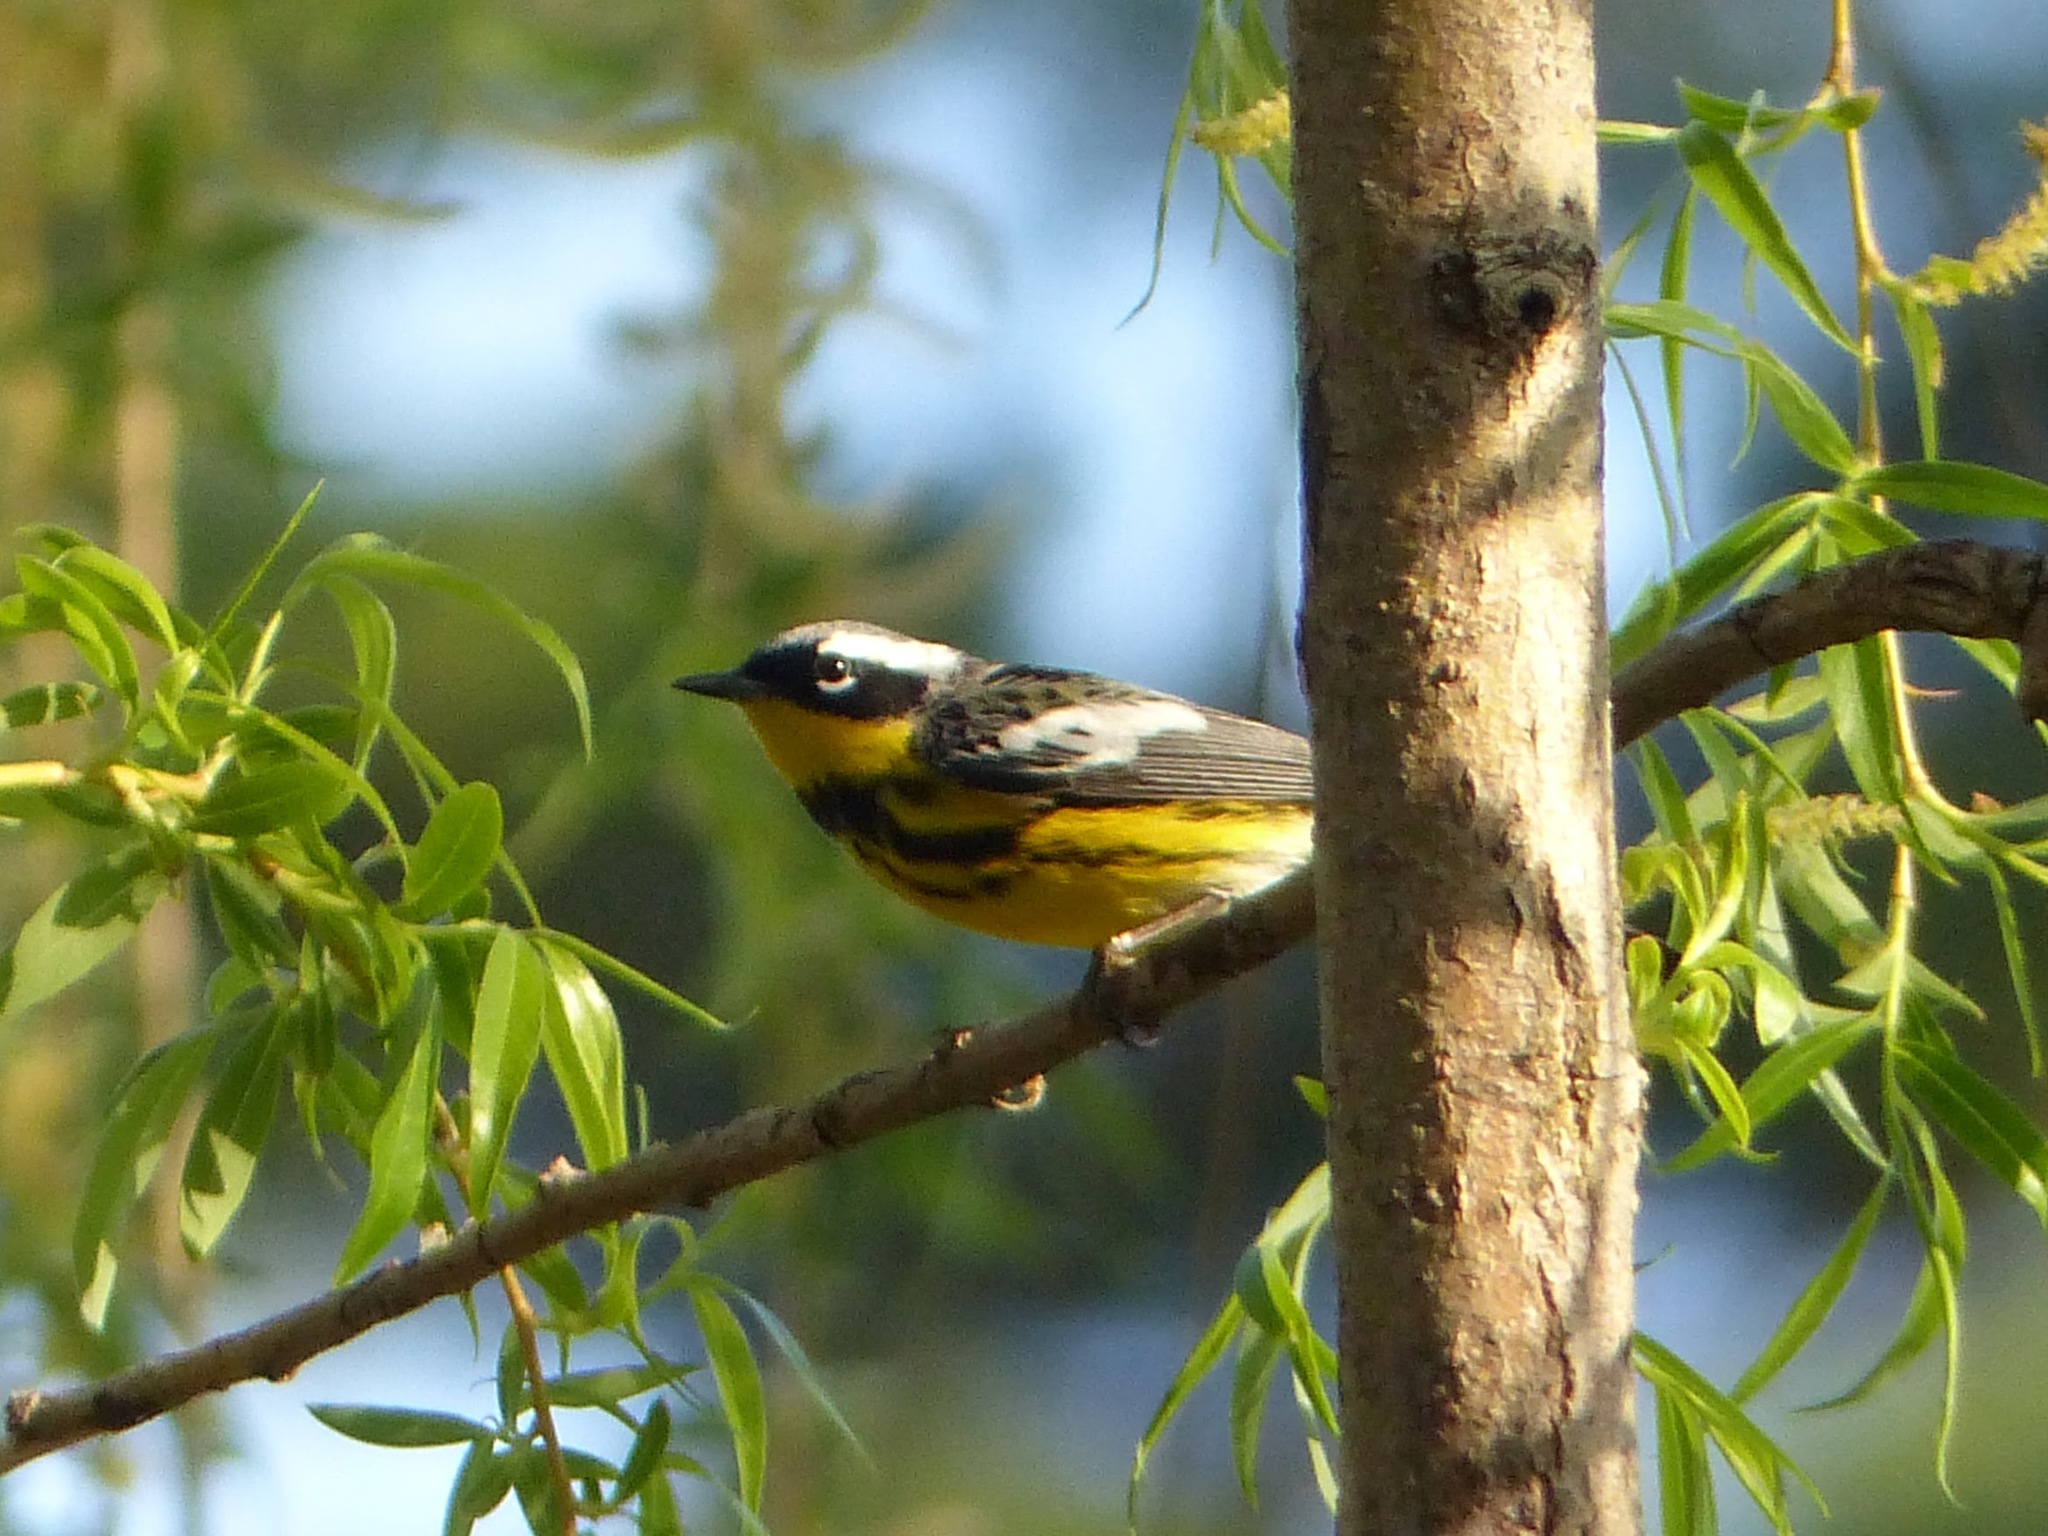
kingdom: Animalia
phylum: Chordata
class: Aves
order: Passeriformes
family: Parulidae
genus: Setophaga
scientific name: Setophaga magnolia
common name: Magnolia warbler
